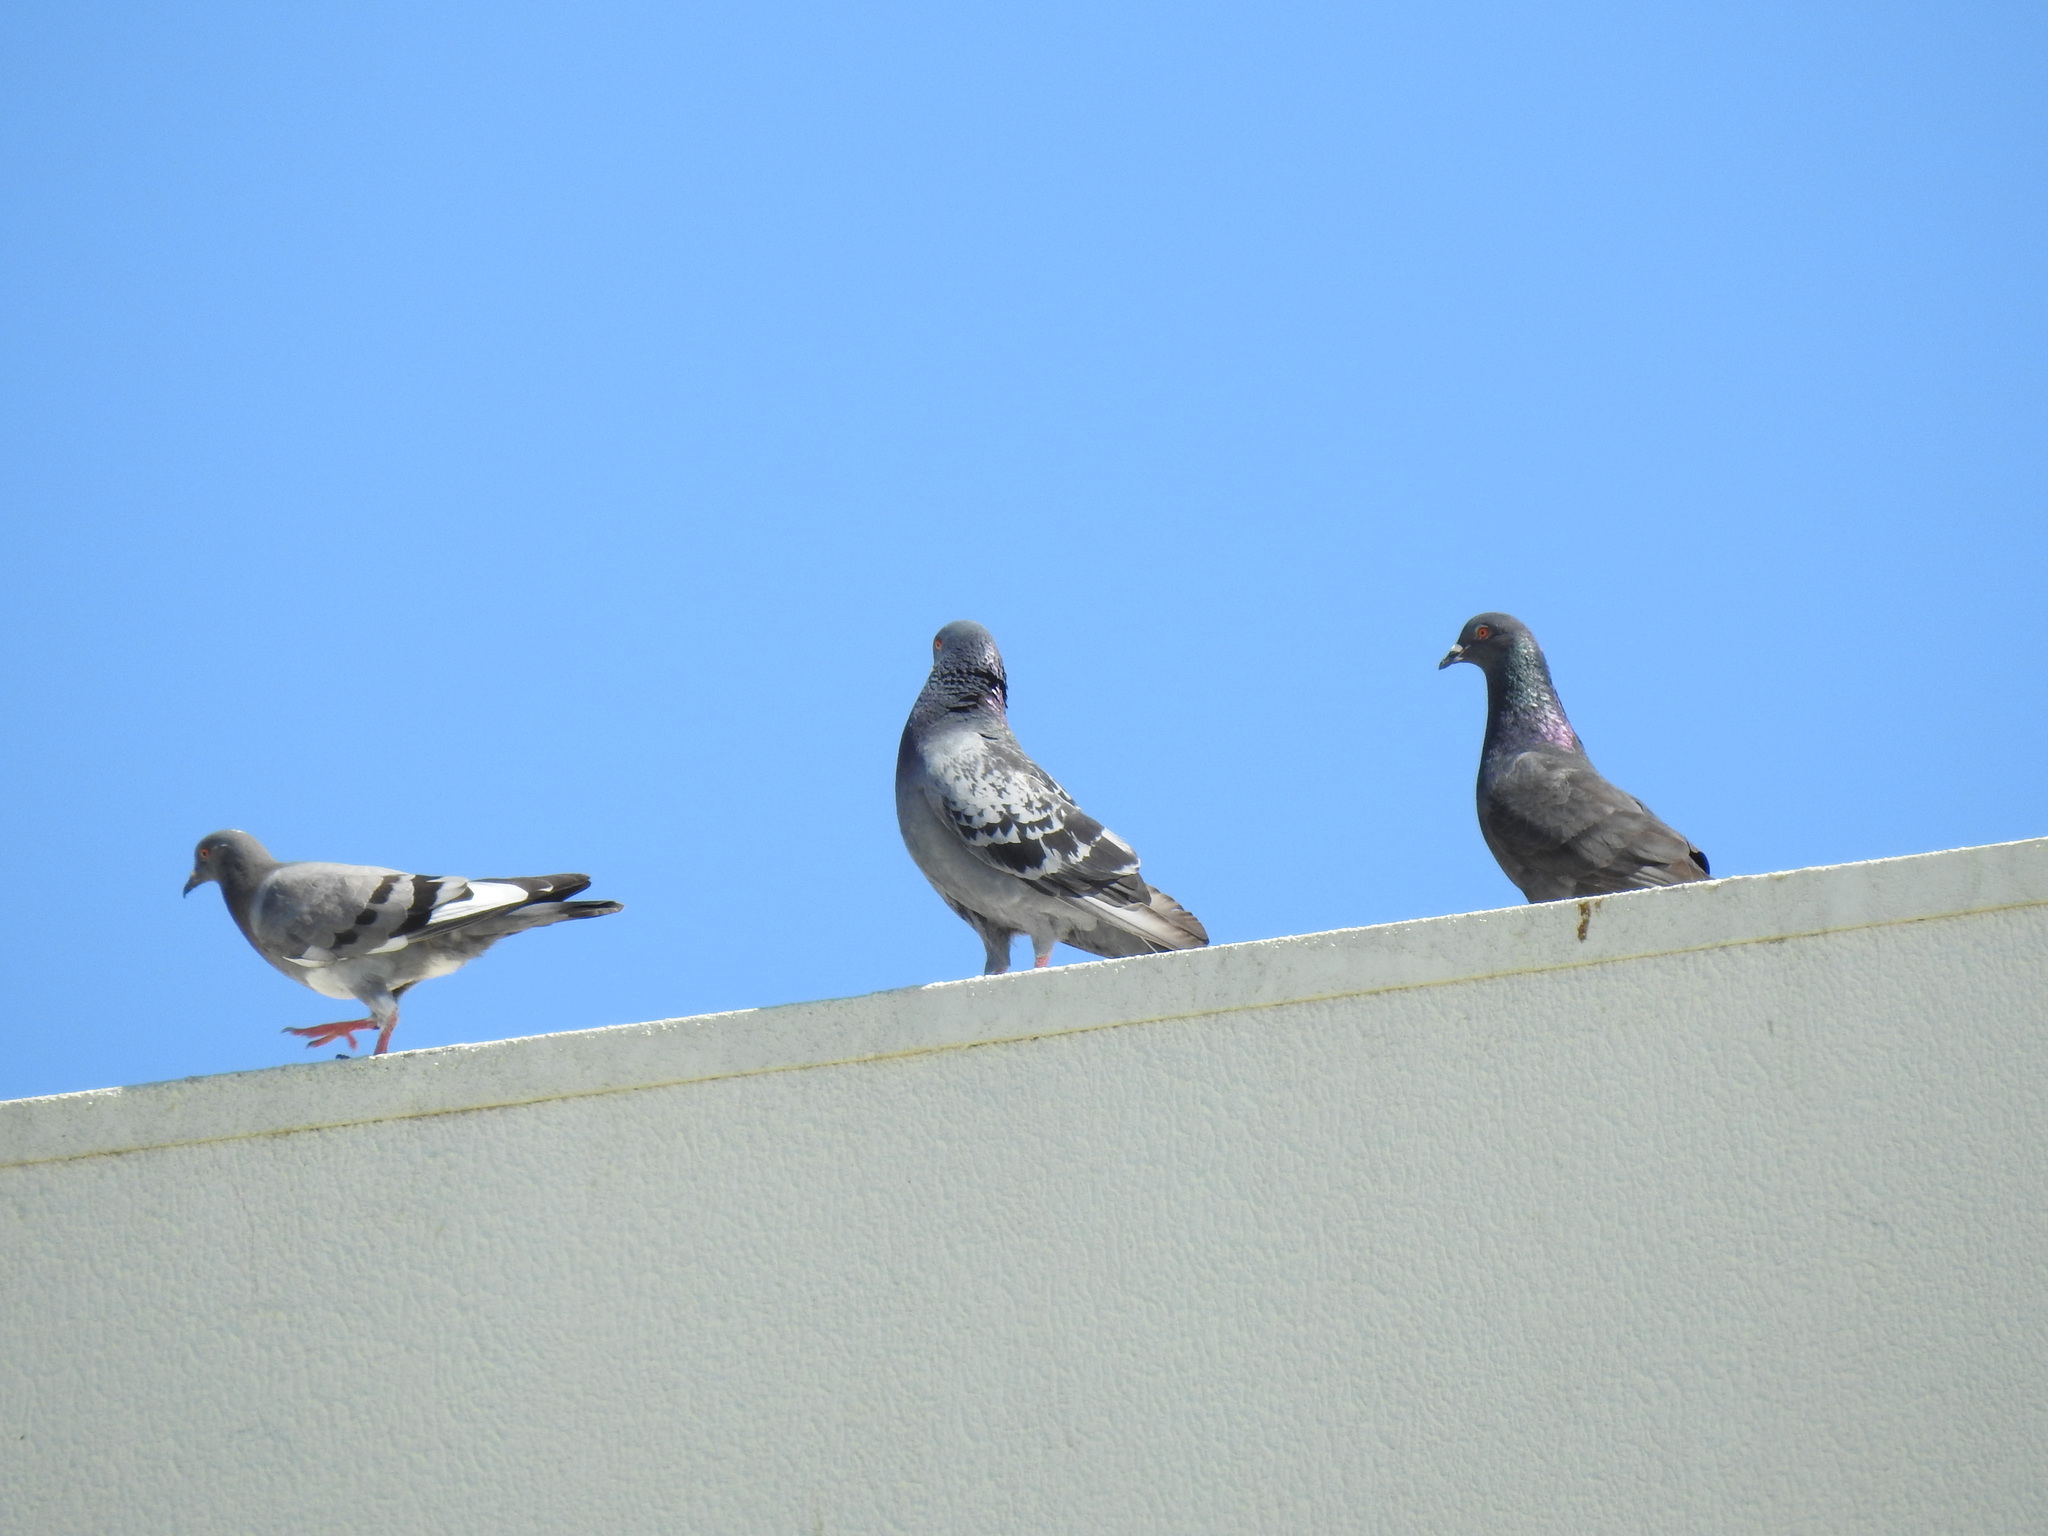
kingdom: Animalia
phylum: Chordata
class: Aves
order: Columbiformes
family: Columbidae
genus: Columba
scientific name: Columba livia
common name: Rock pigeon
